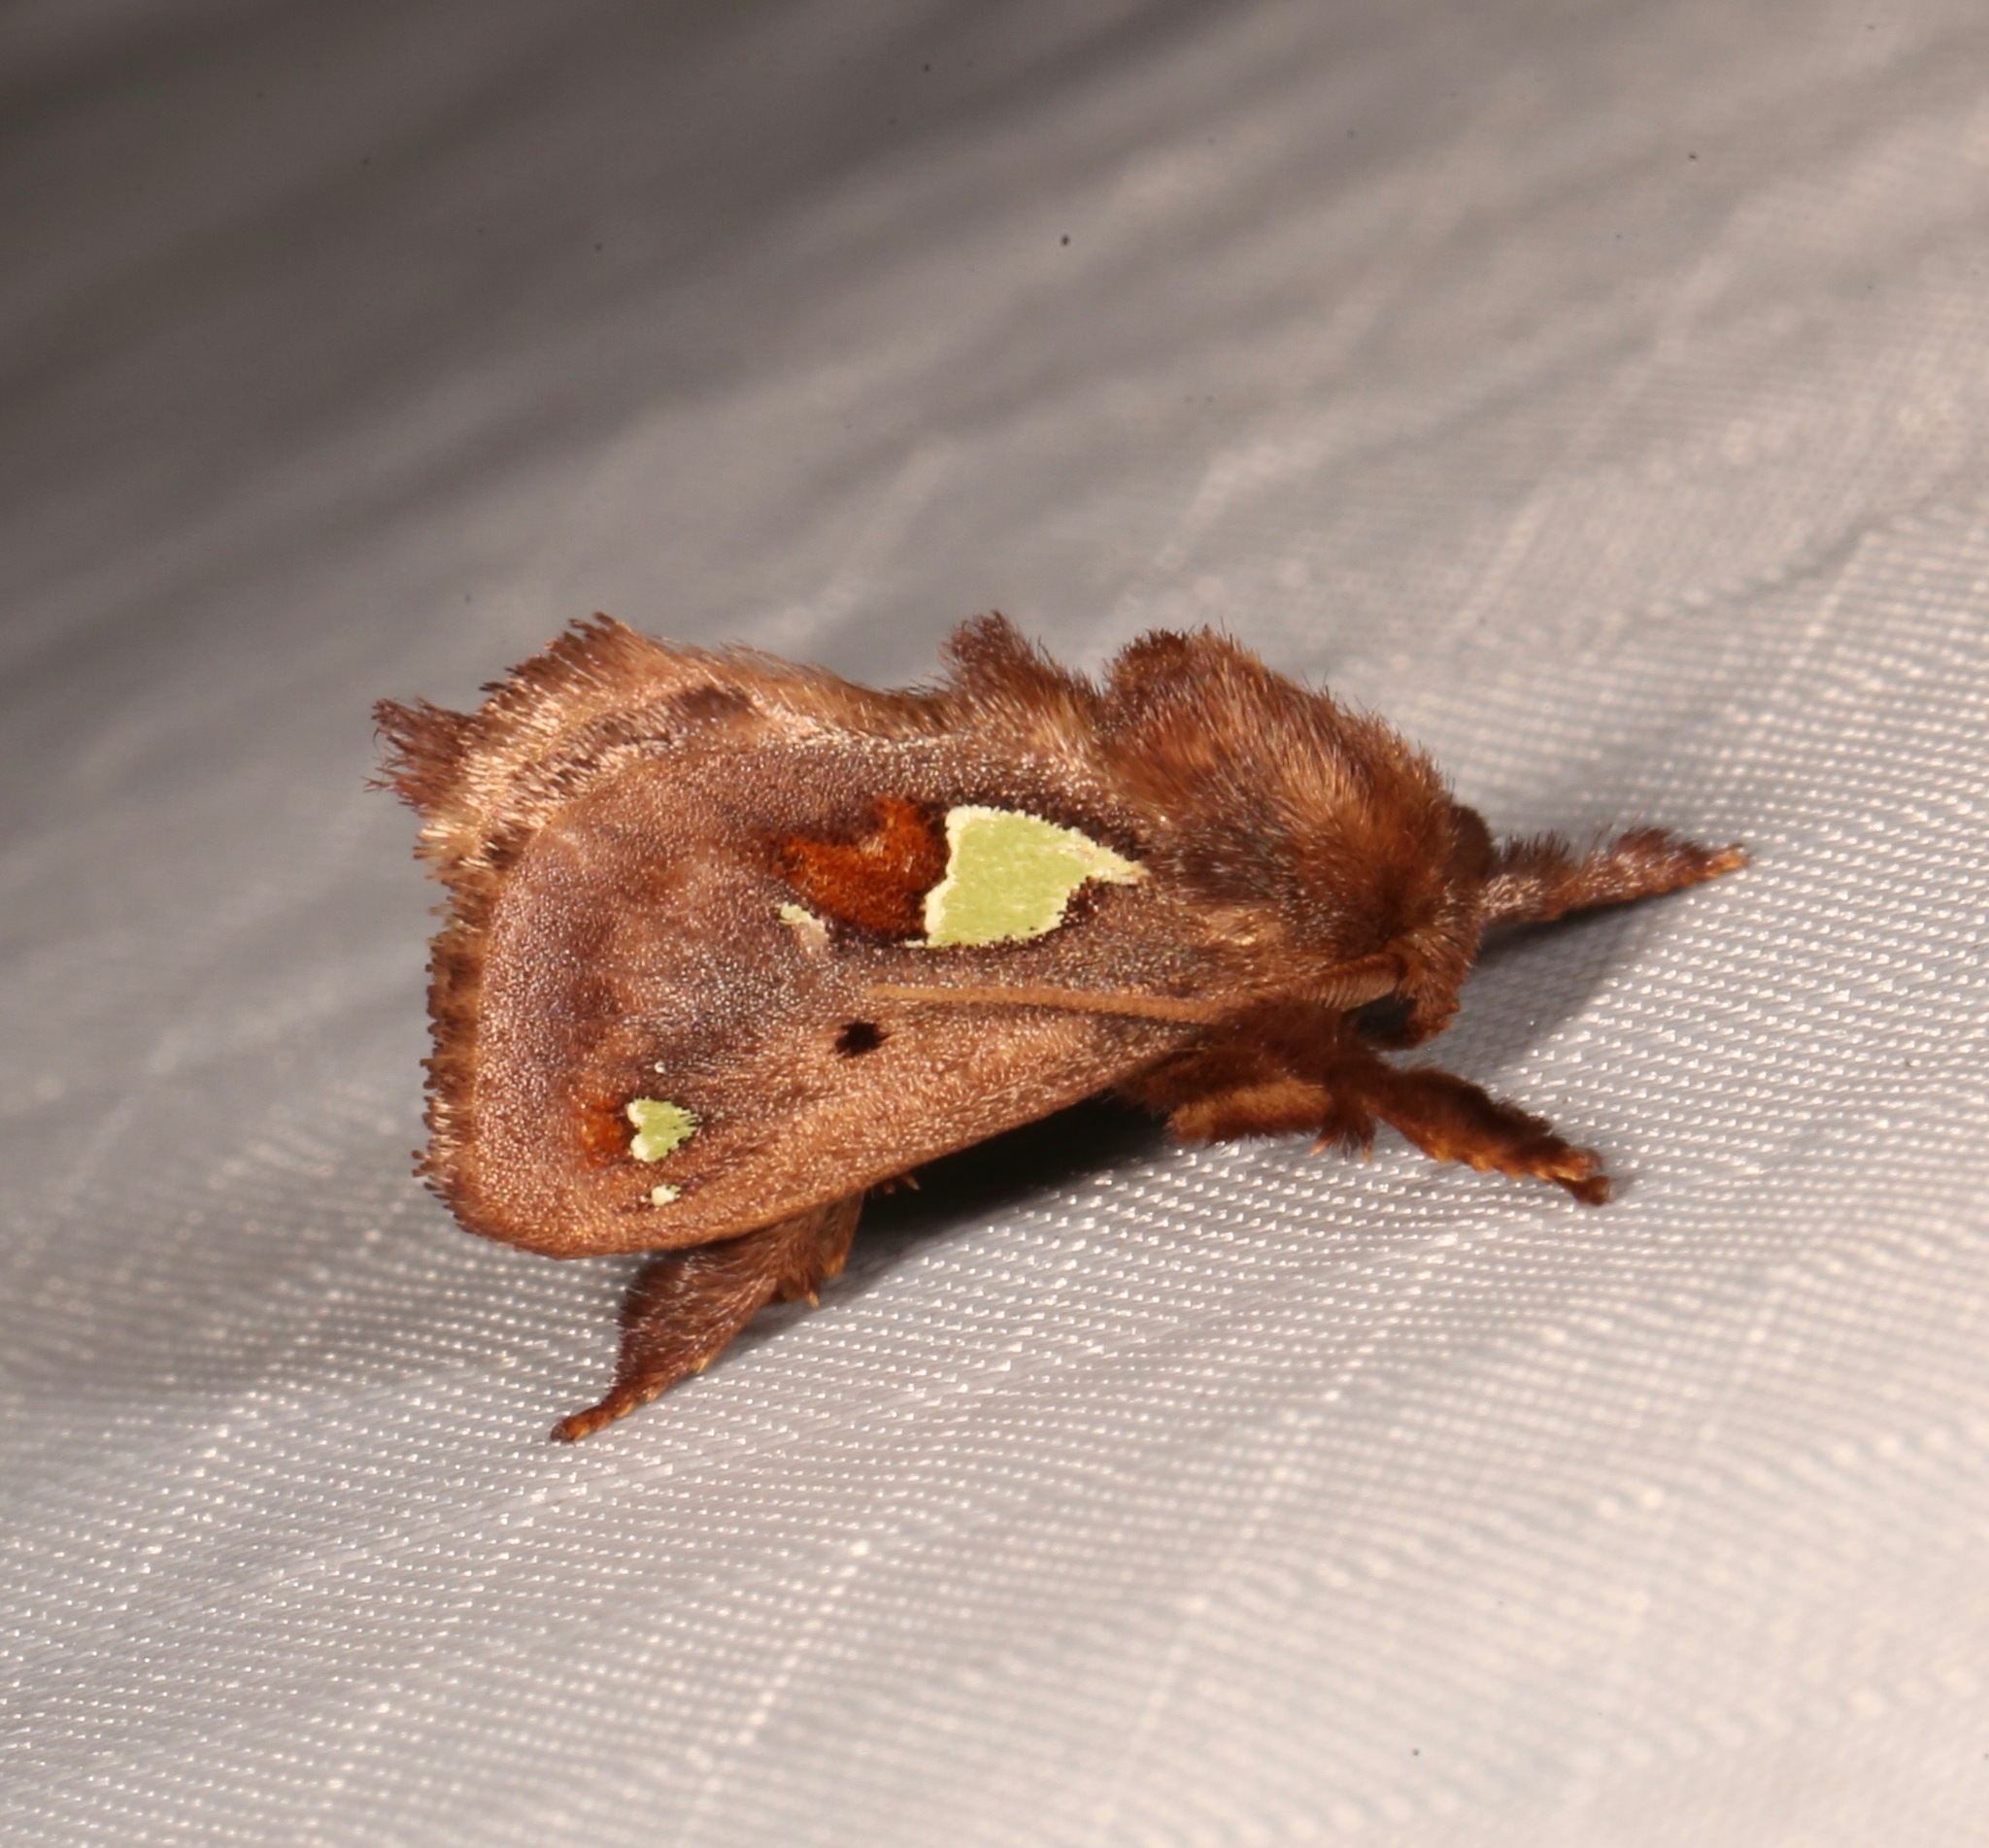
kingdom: Animalia
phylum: Arthropoda
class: Insecta
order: Lepidoptera
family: Limacodidae
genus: Euclea
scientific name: Euclea delphinii
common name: Spiny oak-slug moth
